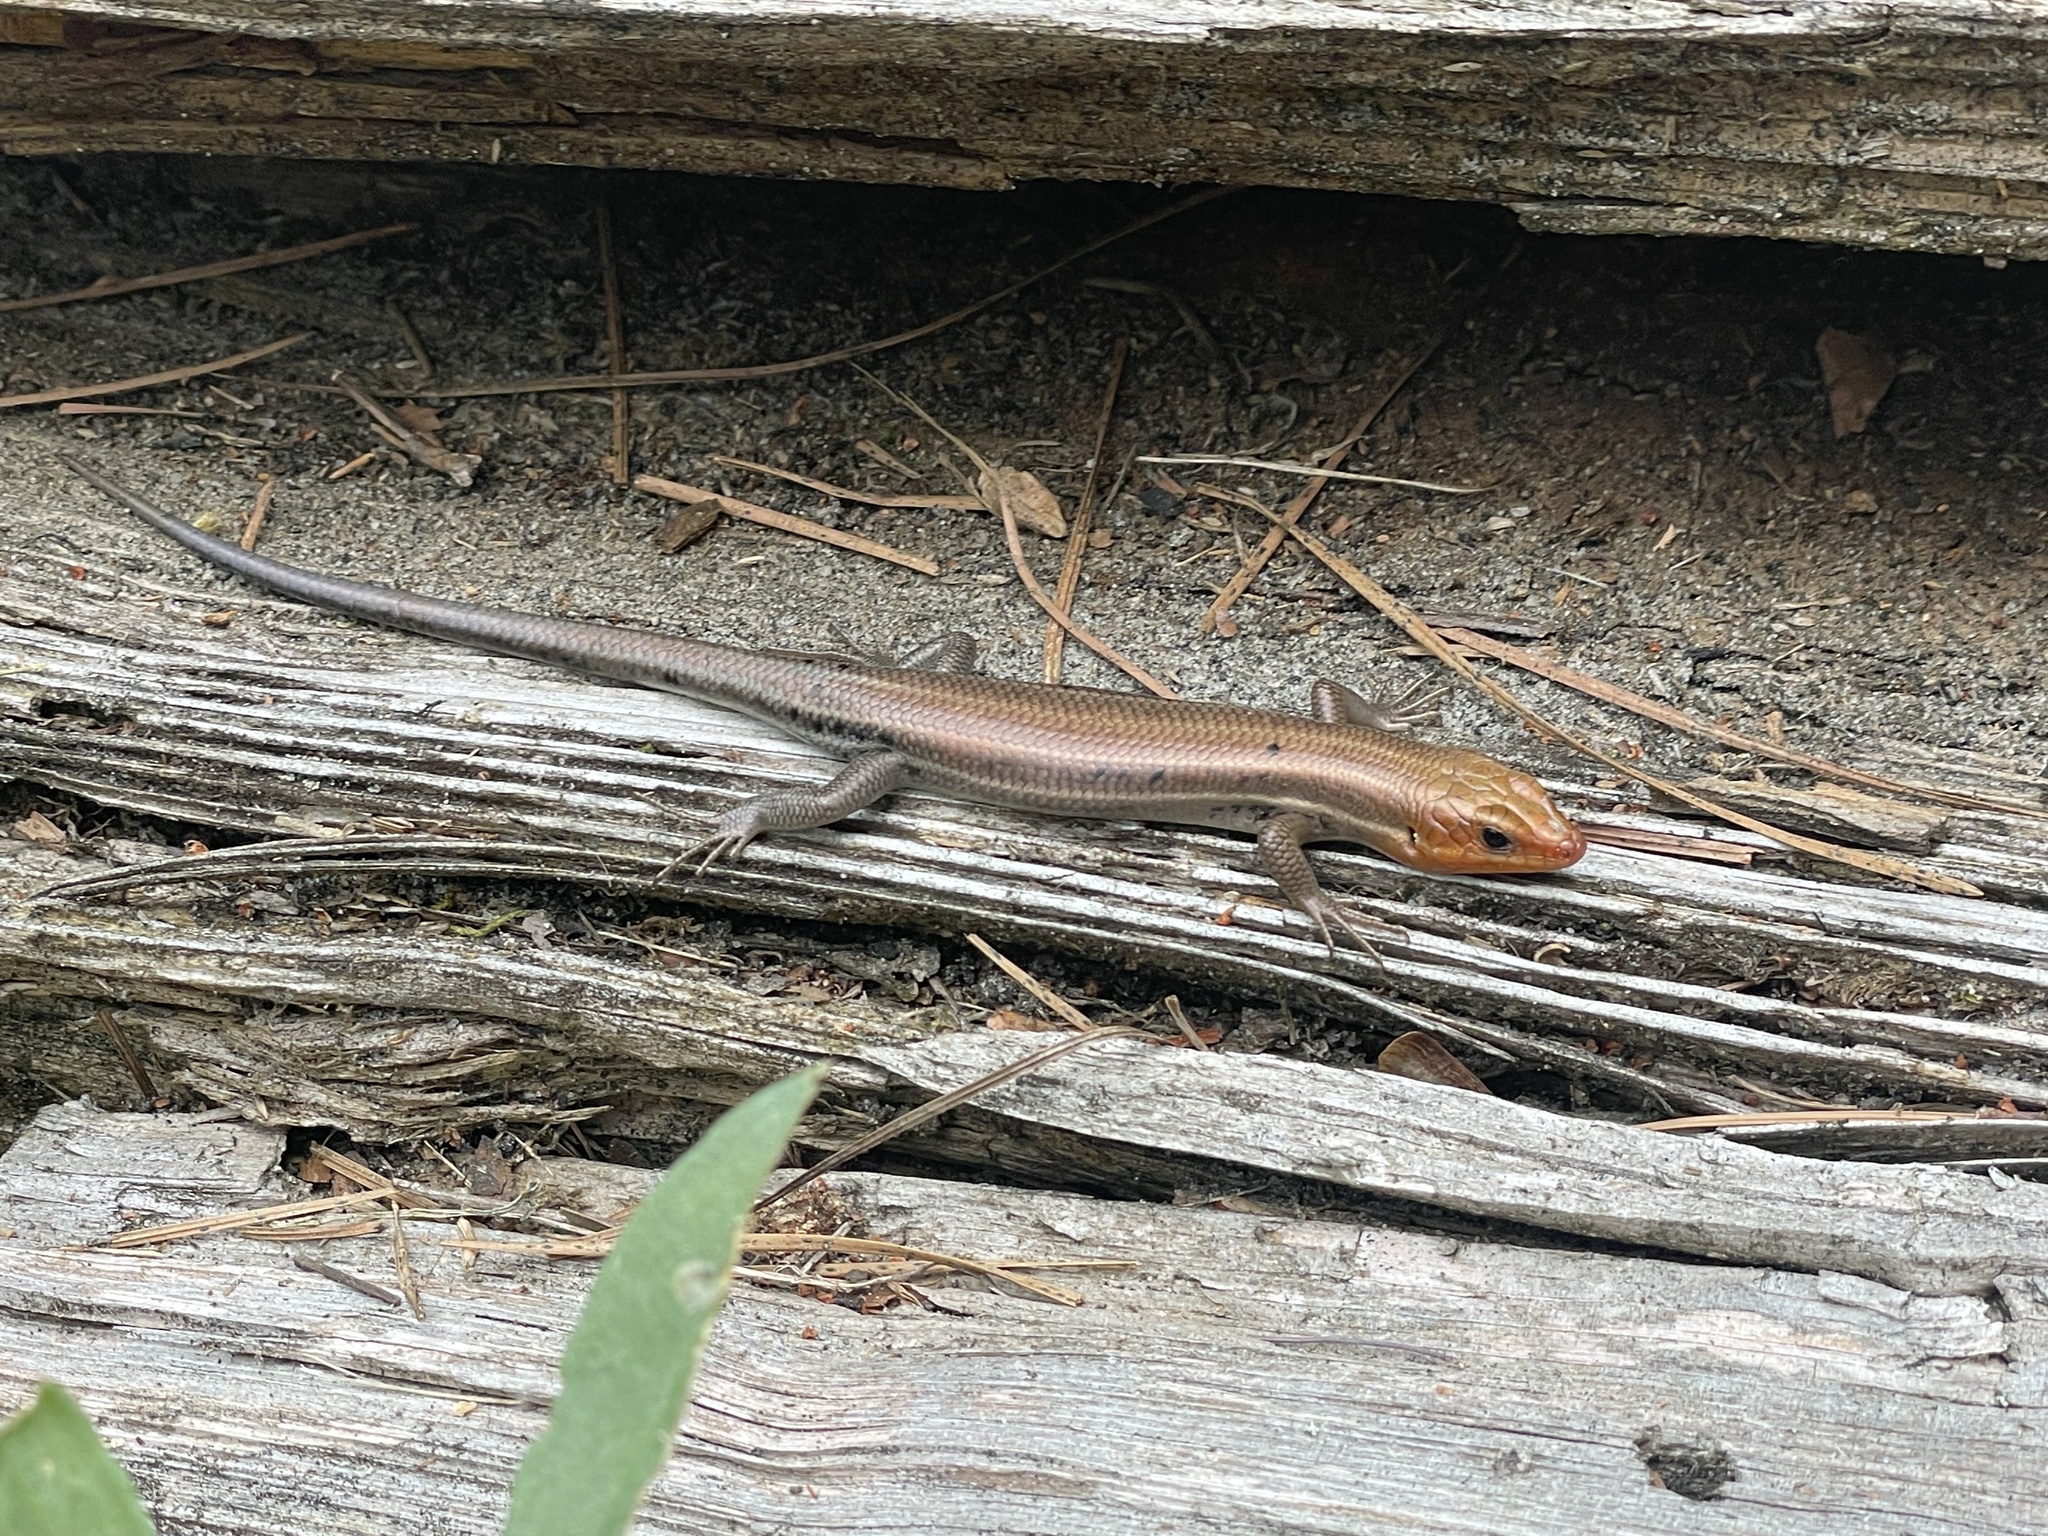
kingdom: Animalia
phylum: Chordata
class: Squamata
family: Scincidae
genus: Plestiodon
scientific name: Plestiodon fasciatus
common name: Five-lined skink
